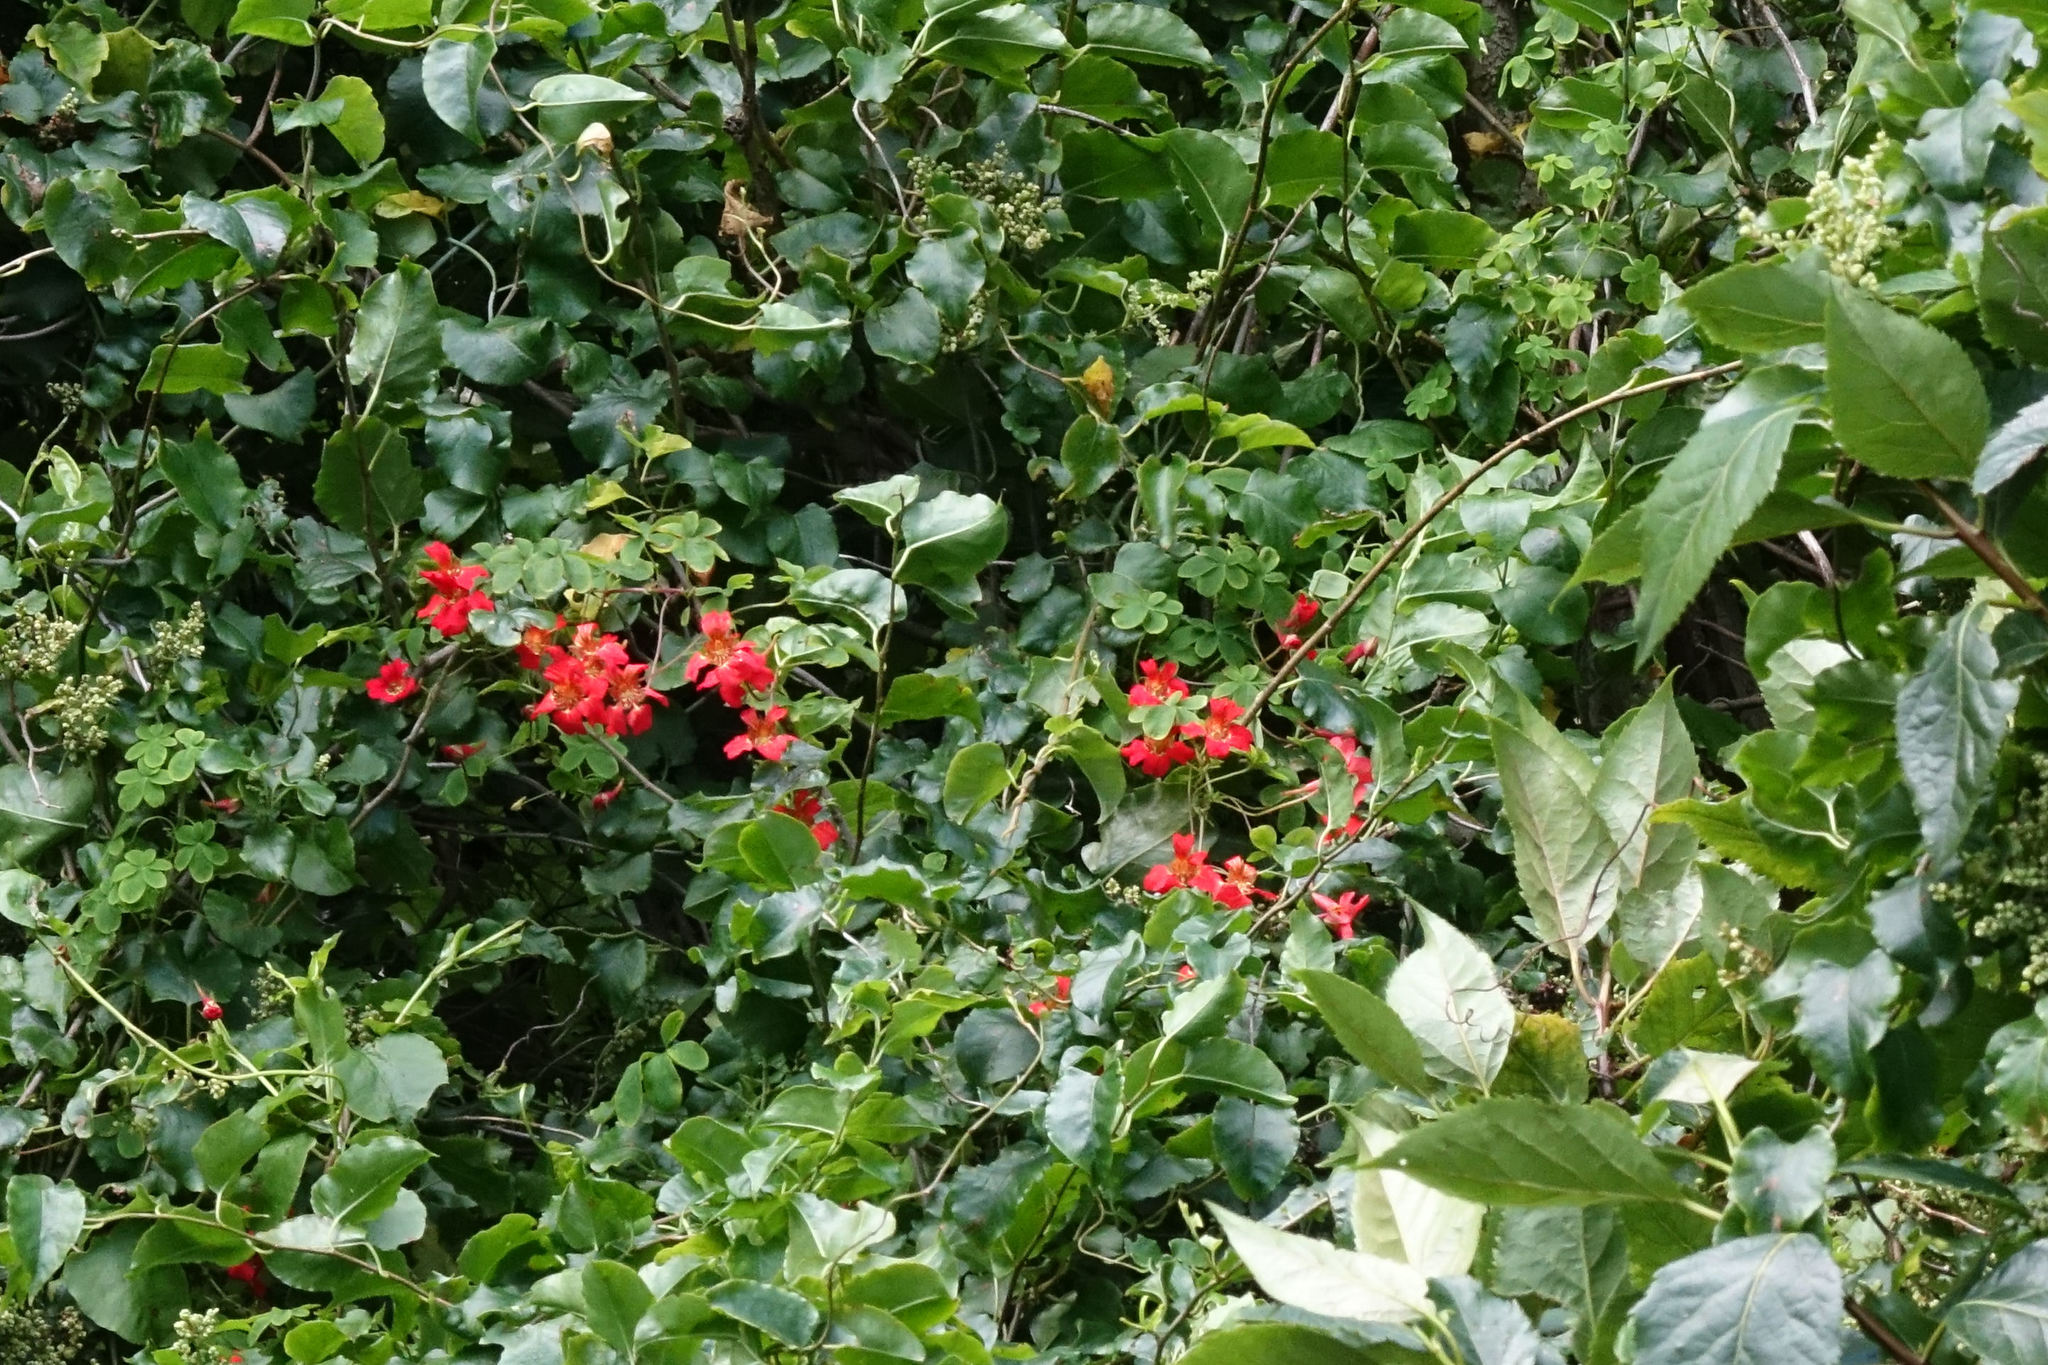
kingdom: Plantae
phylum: Tracheophyta
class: Magnoliopsida
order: Brassicales
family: Tropaeolaceae
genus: Tropaeolum
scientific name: Tropaeolum speciosum
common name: Flame nasturtium
